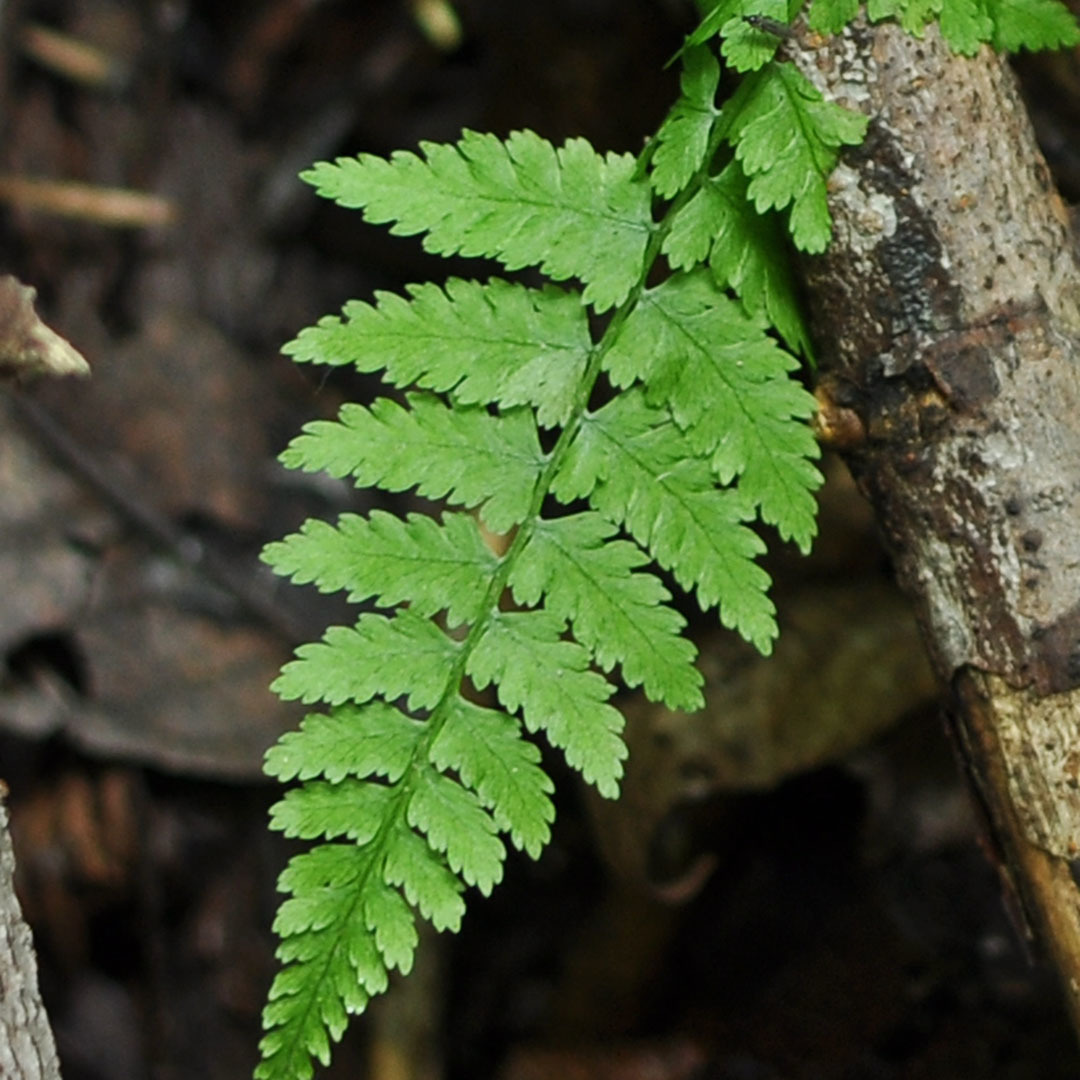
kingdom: Plantae
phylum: Tracheophyta
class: Polypodiopsida
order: Polypodiales
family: Athyriaceae
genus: Athyrium
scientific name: Athyrium filix-femina
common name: Lady fern
